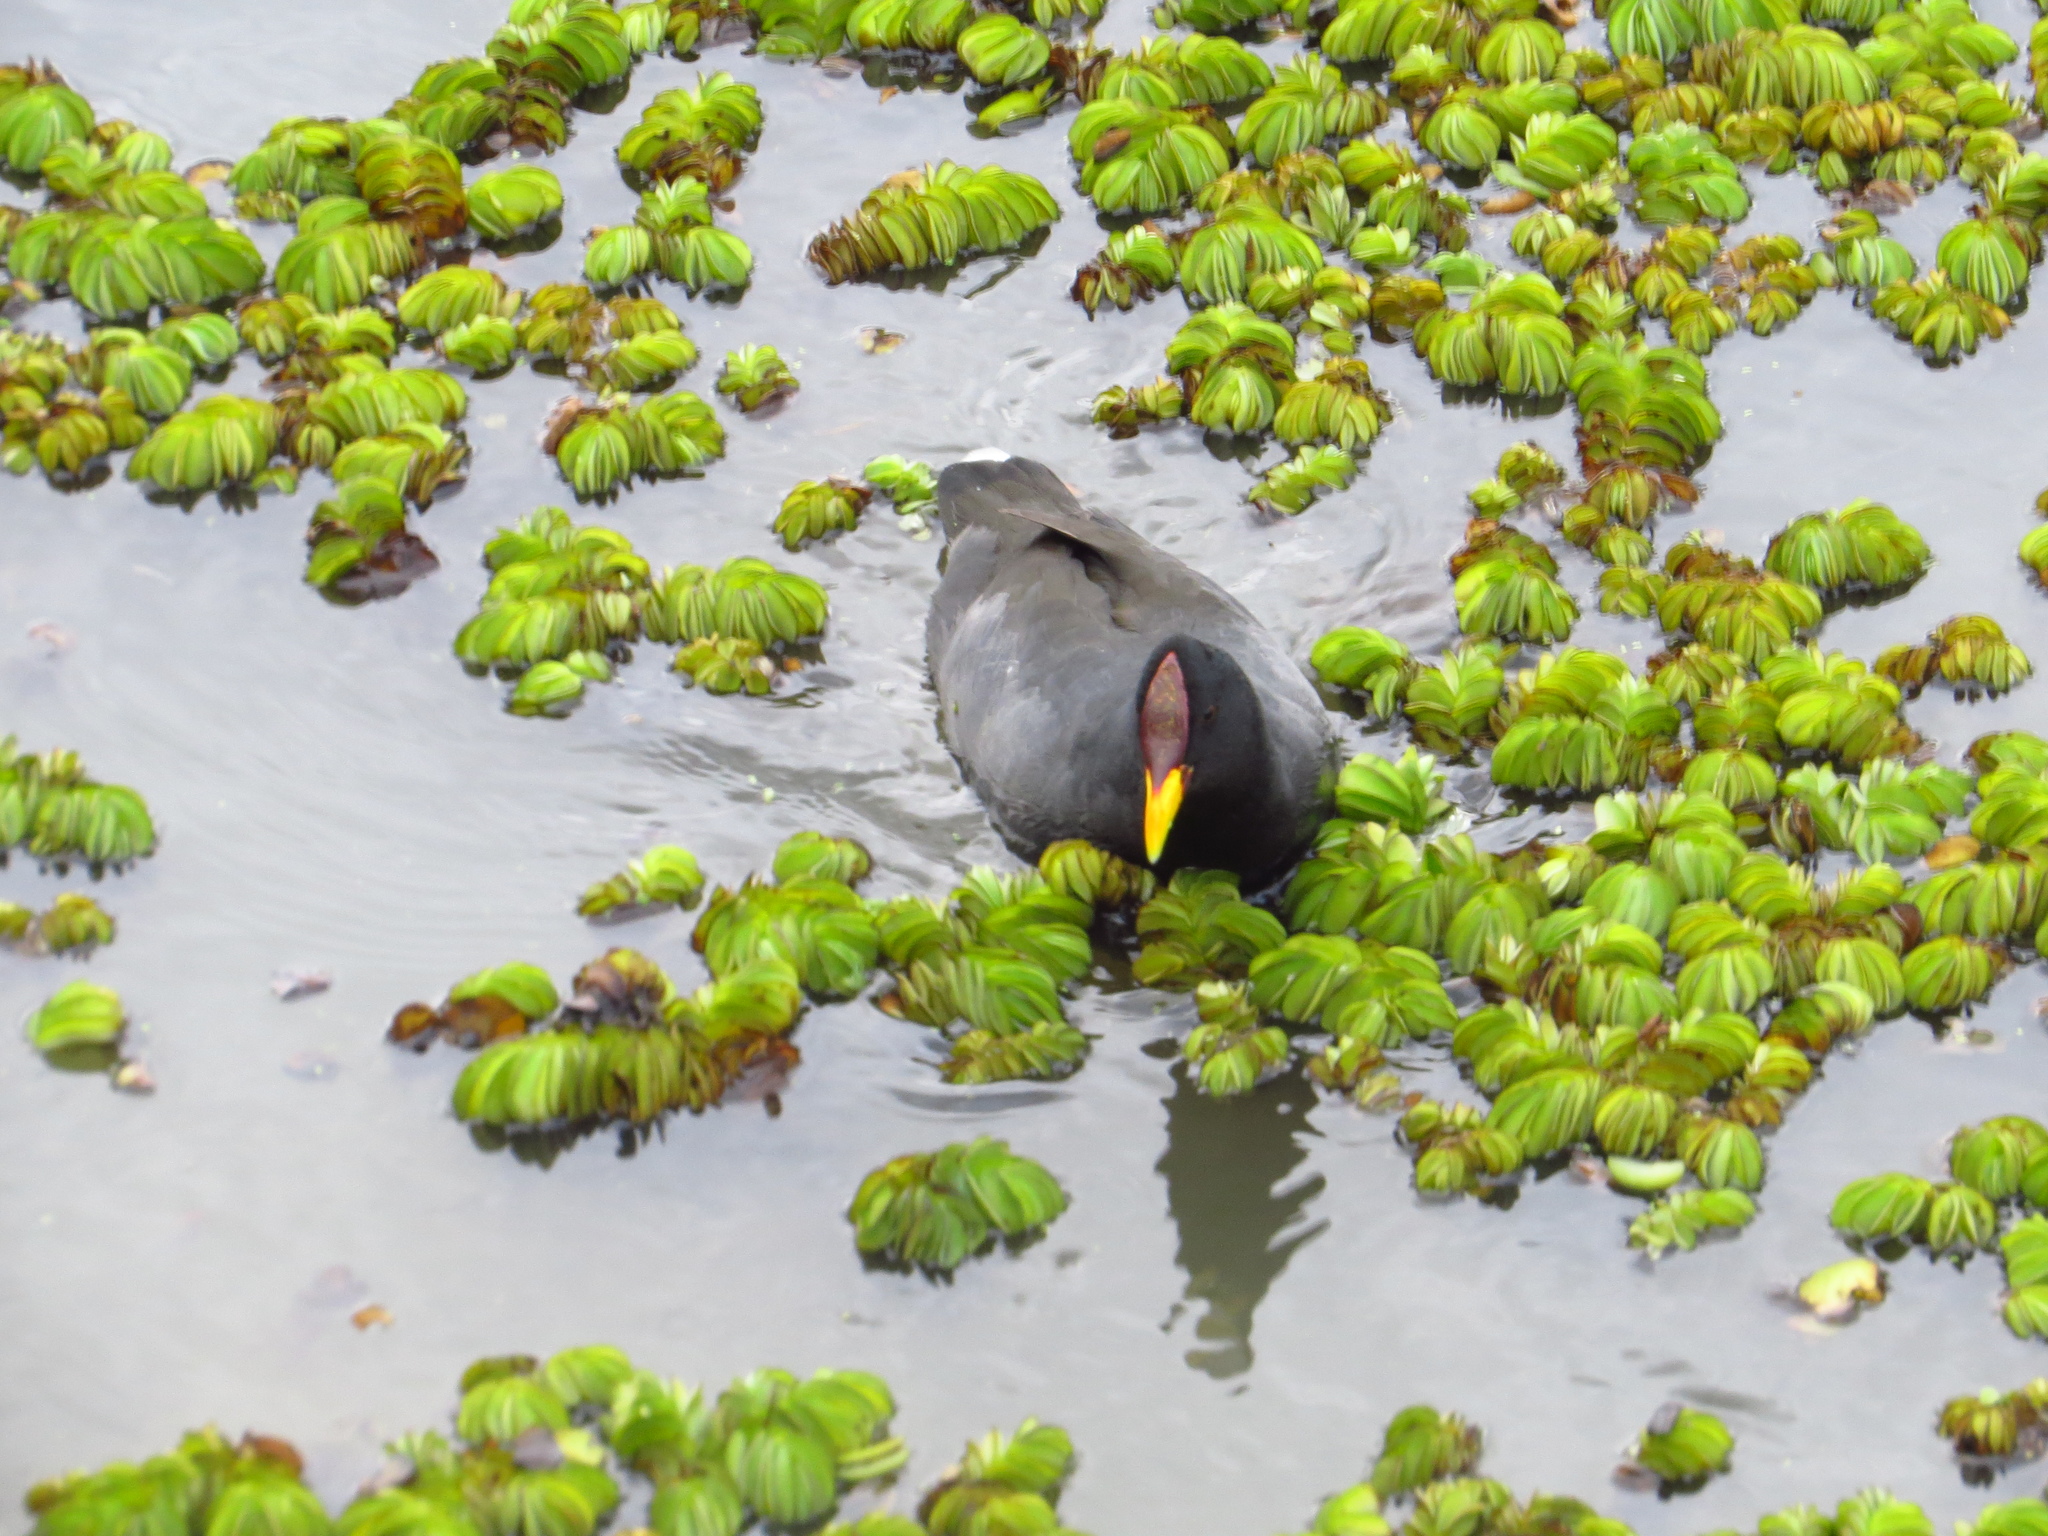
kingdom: Animalia
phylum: Chordata
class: Aves
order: Gruiformes
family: Rallidae
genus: Fulica
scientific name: Fulica rufifrons
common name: Red-fronted coot
